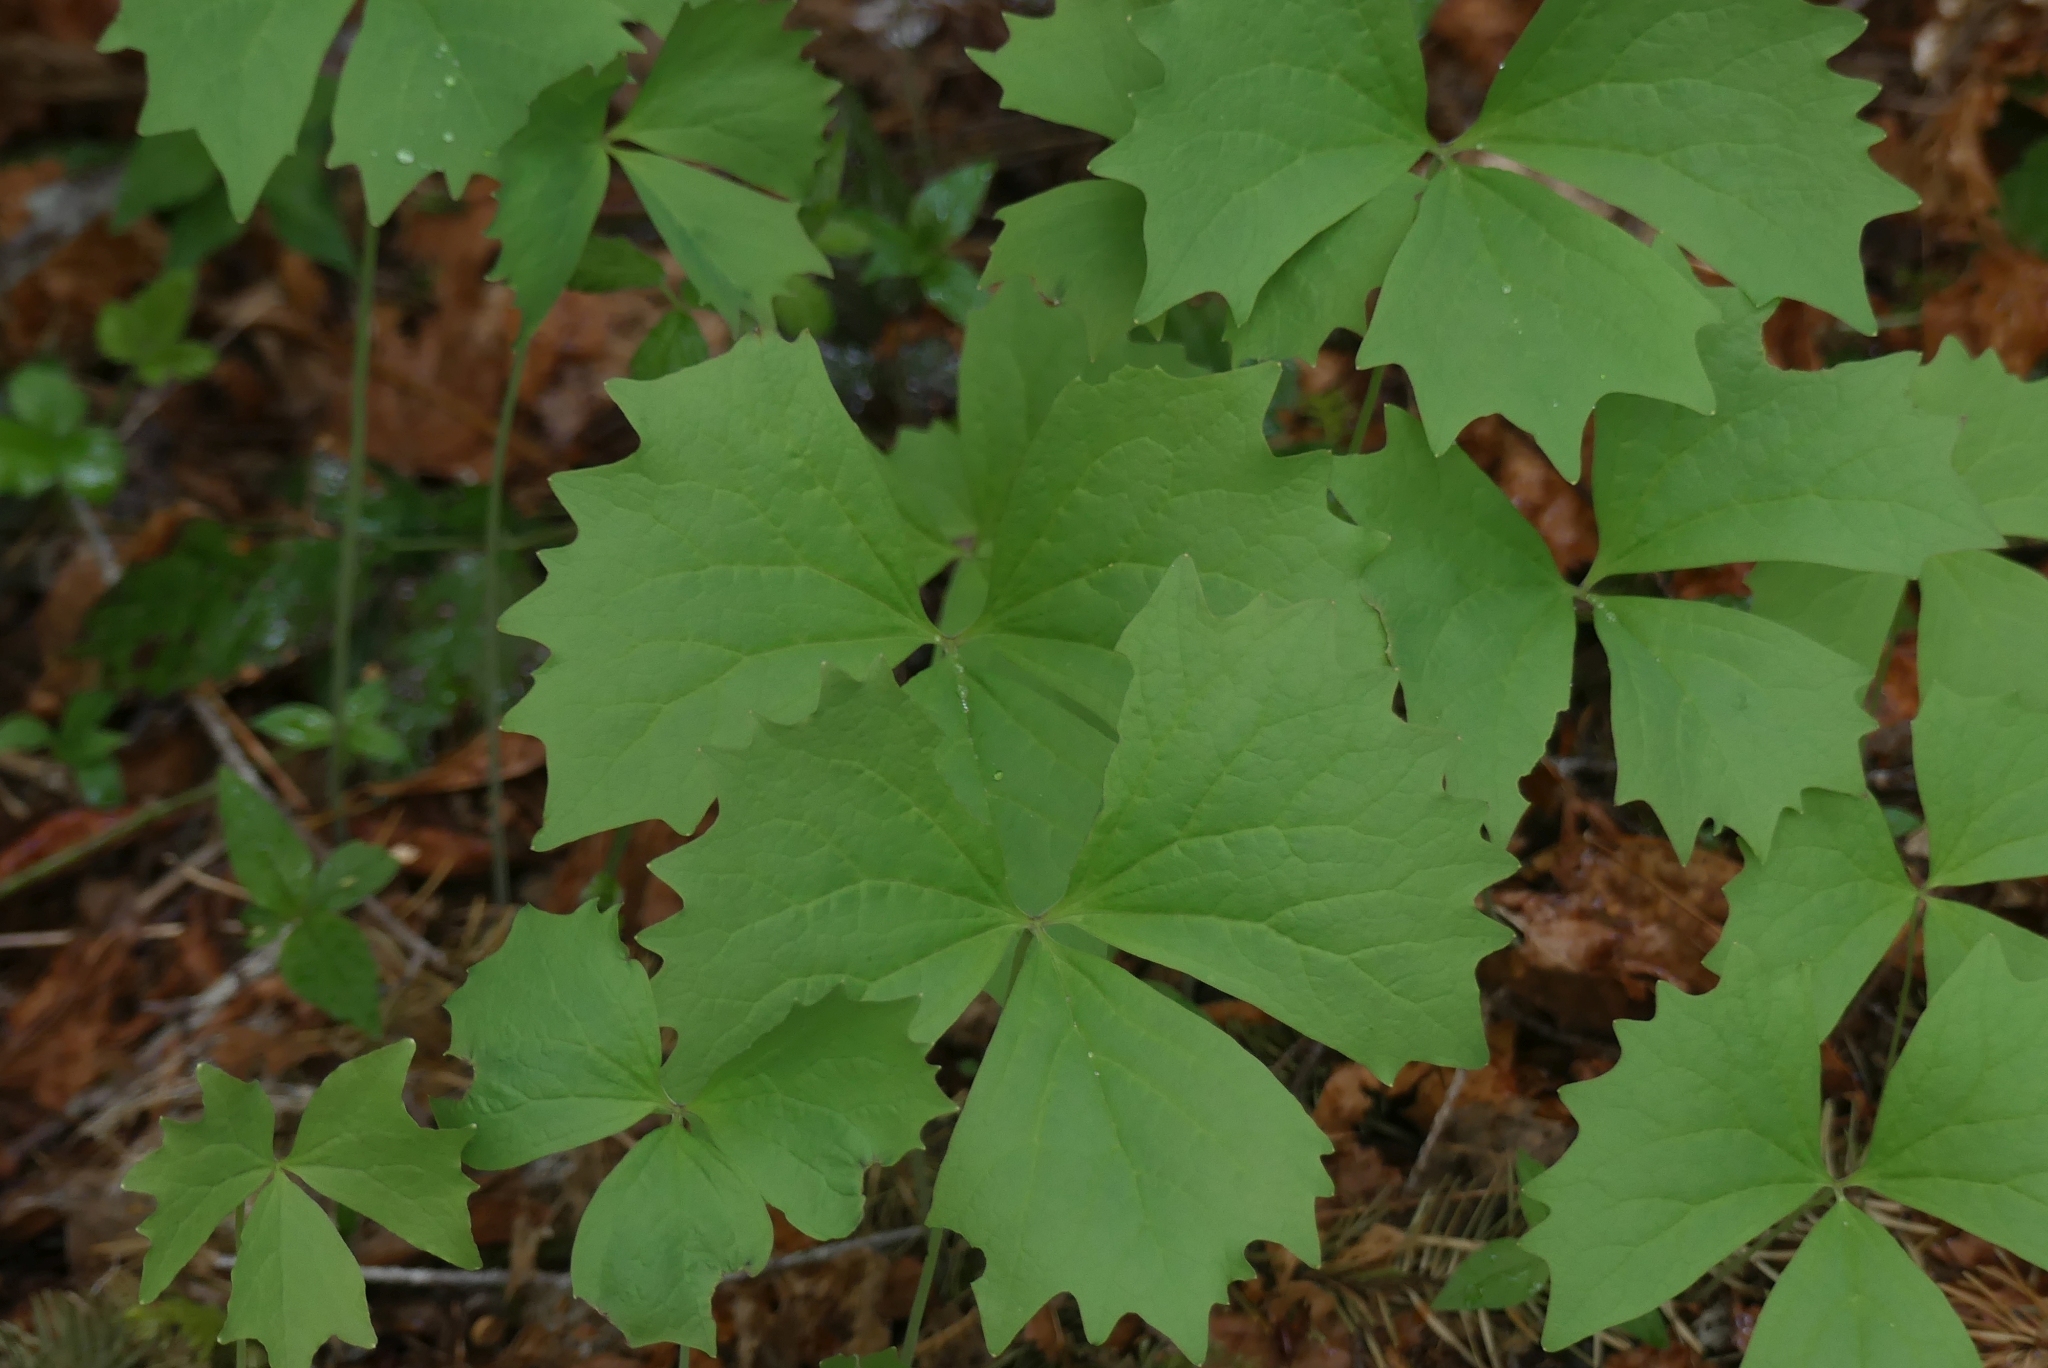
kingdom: Plantae
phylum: Tracheophyta
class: Magnoliopsida
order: Ranunculales
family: Berberidaceae
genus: Achlys
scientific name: Achlys triphylla
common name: Vanilla-leaf
